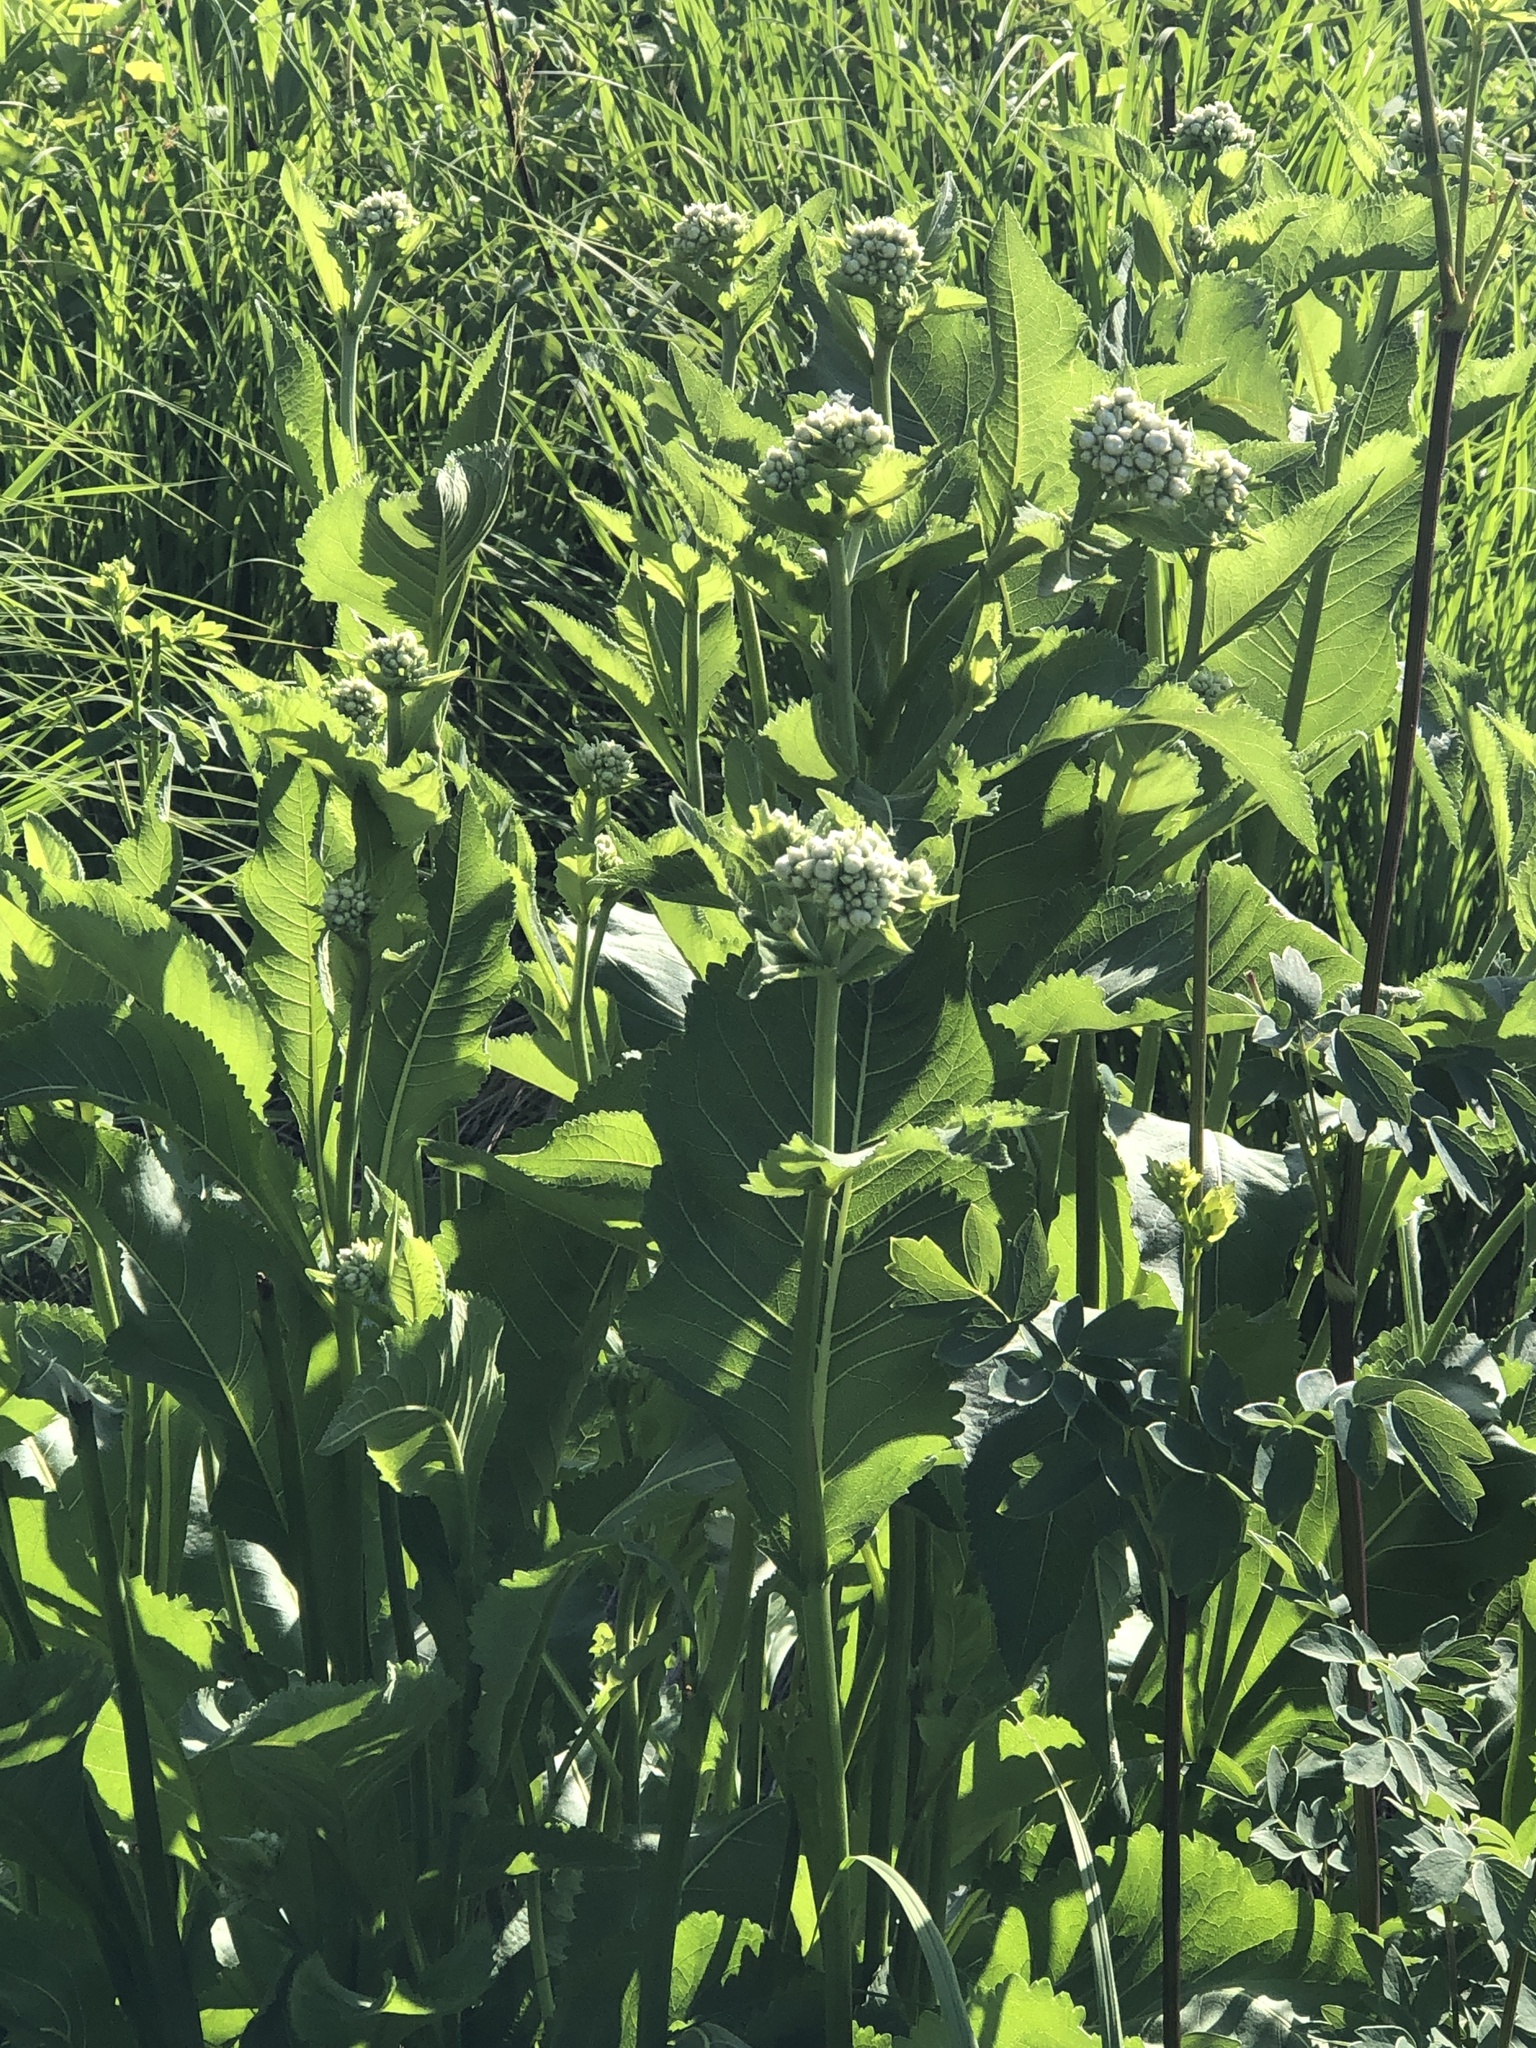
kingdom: Plantae
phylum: Tracheophyta
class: Magnoliopsida
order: Asterales
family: Asteraceae
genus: Parthenium
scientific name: Parthenium integrifolium
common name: American feverfew
